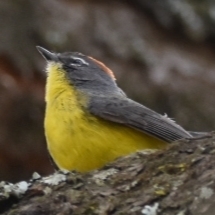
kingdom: Animalia
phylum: Chordata
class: Aves
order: Passeriformes
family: Parulidae
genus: Myioborus
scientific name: Myioborus brunniceps
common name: Brown-capped whitestart
